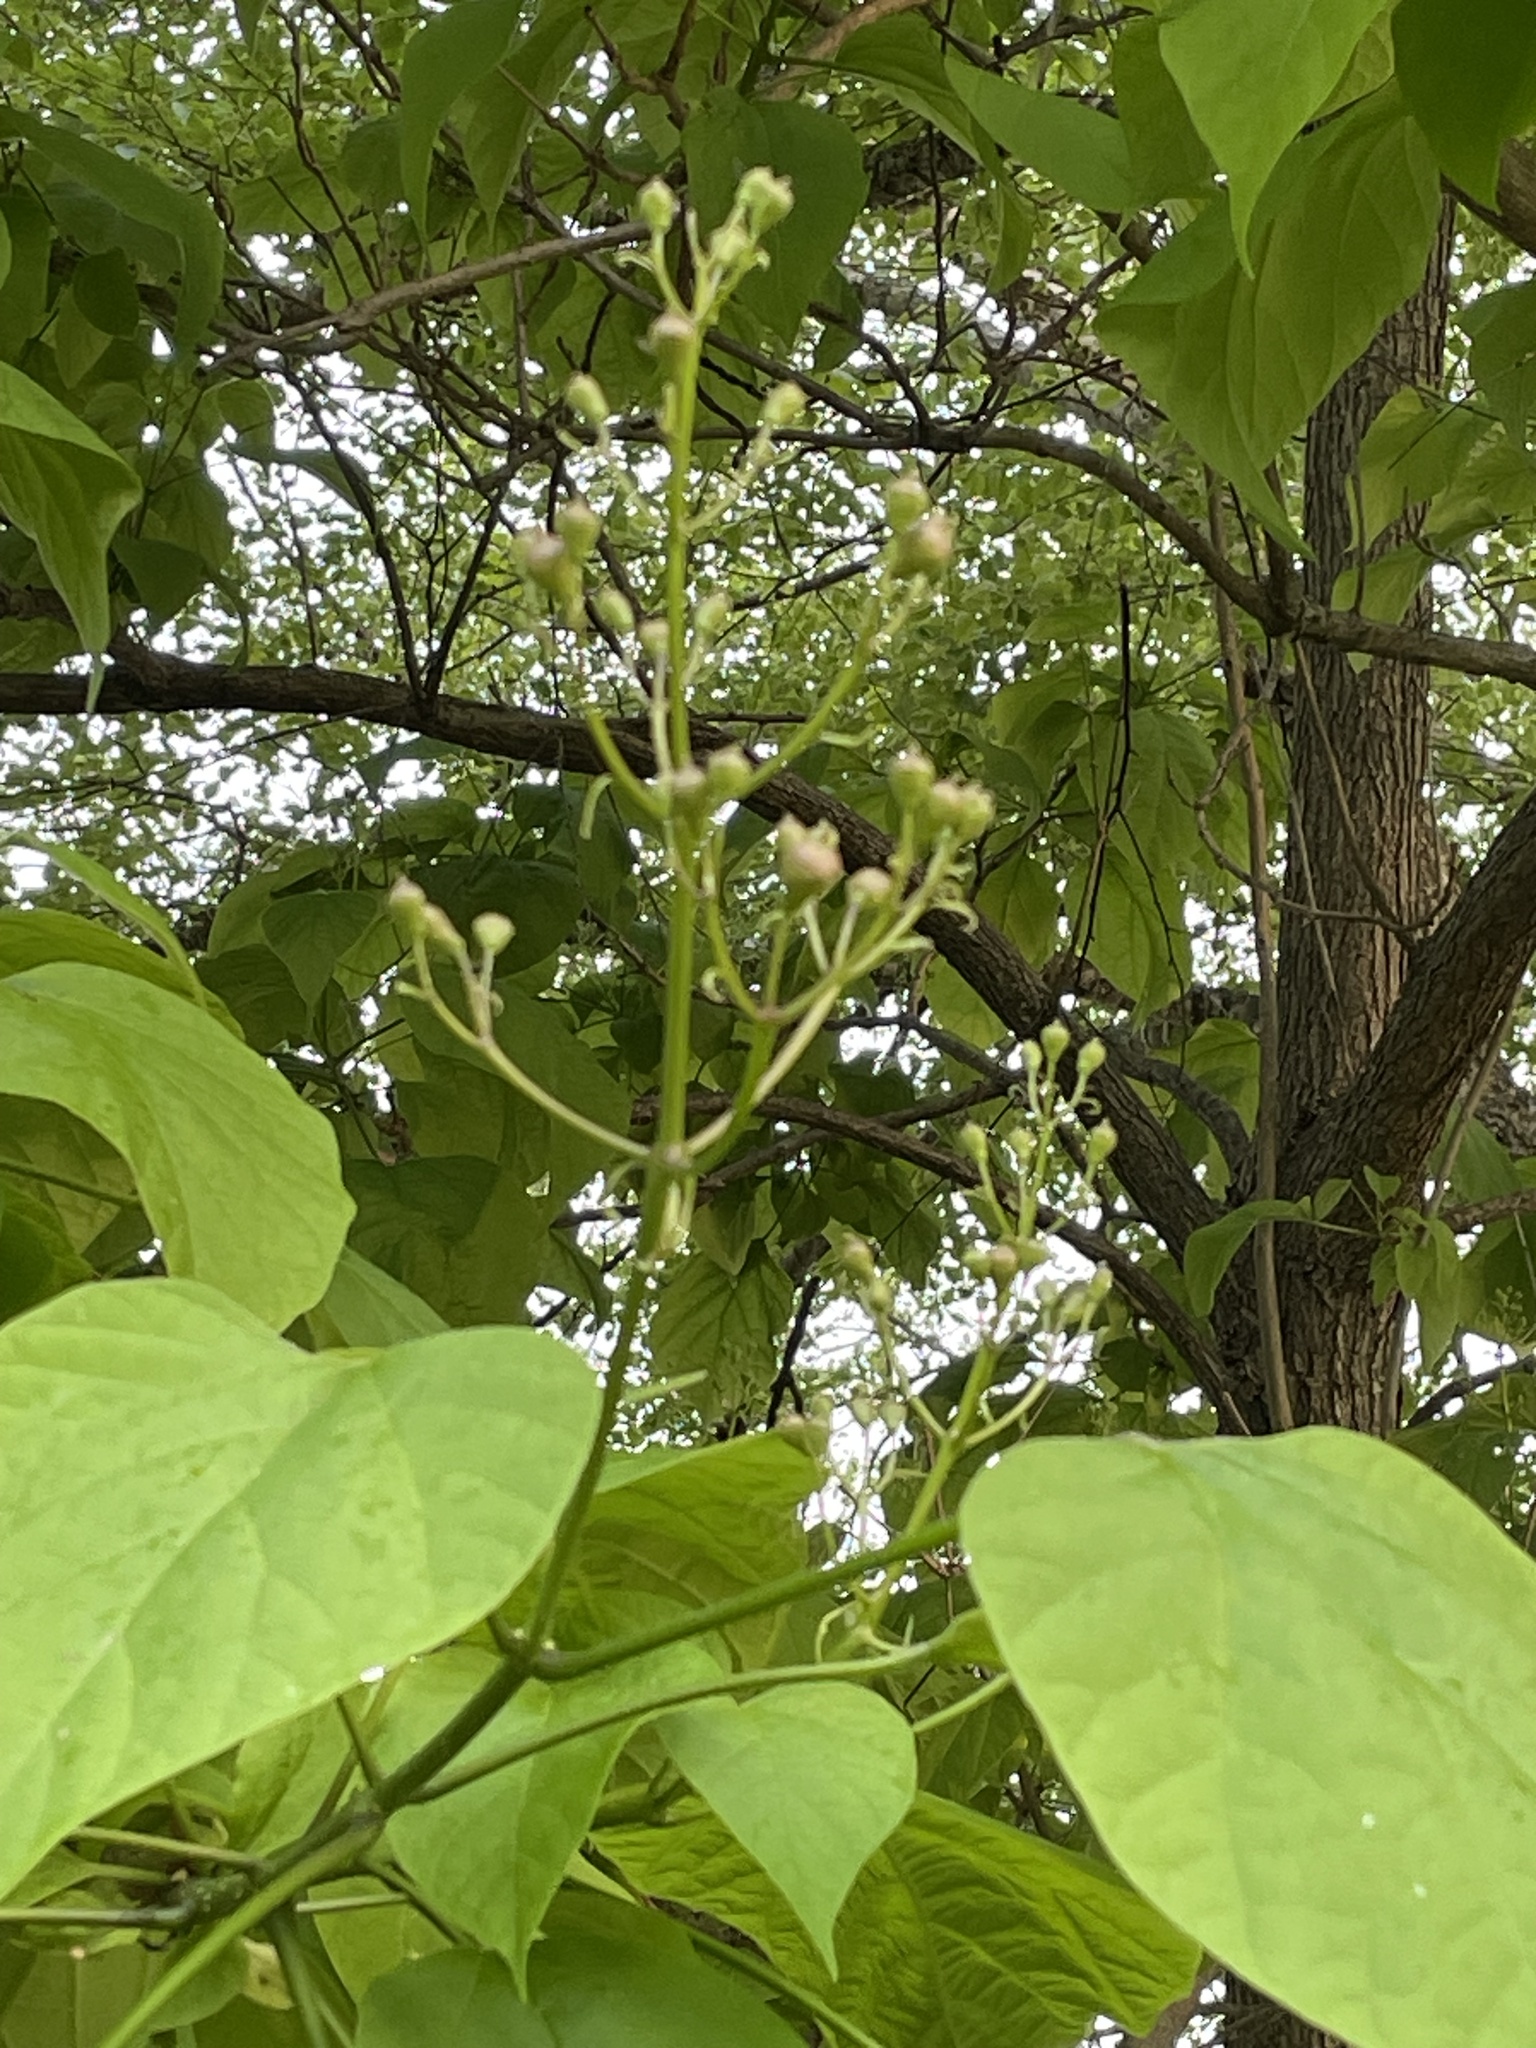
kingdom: Plantae
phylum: Tracheophyta
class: Magnoliopsida
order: Lamiales
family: Bignoniaceae
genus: Catalpa
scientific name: Catalpa speciosa
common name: Northern catalpa
